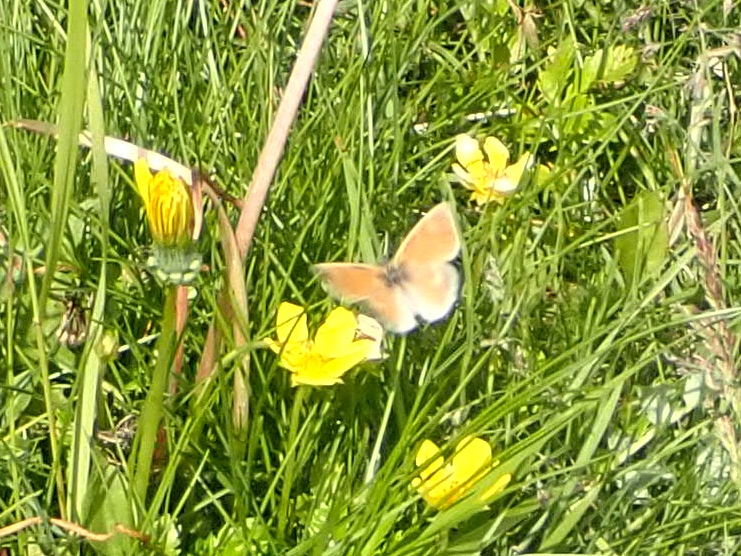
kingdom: Animalia
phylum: Arthropoda
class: Insecta
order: Lepidoptera
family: Nymphalidae
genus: Coenonympha
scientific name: Coenonympha tullia
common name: Large heath
